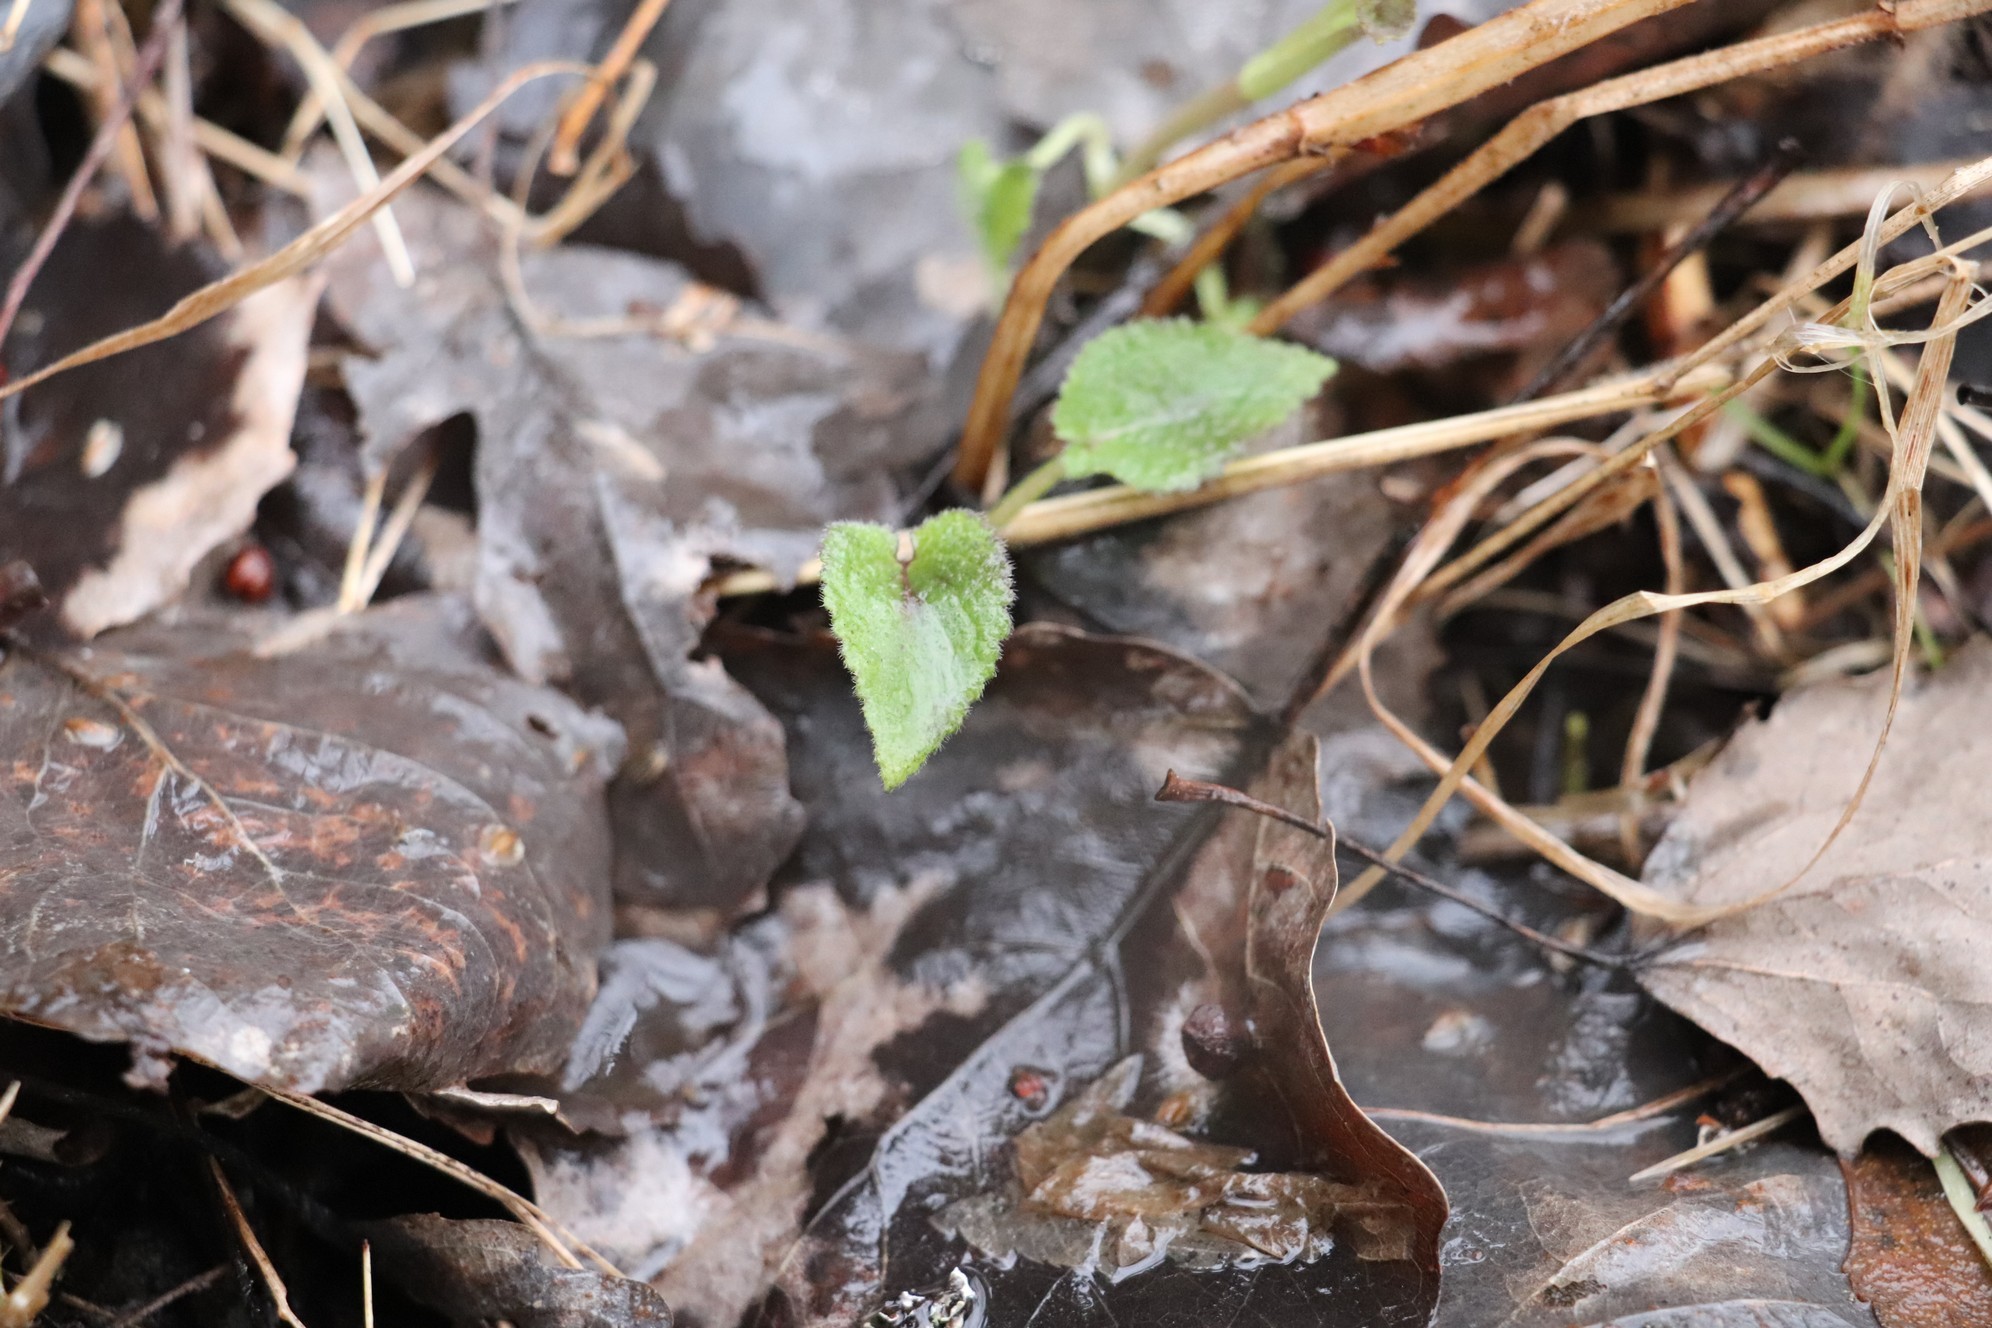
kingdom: Plantae
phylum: Tracheophyta
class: Magnoliopsida
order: Lamiales
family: Lamiaceae
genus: Lamium
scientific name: Lamium album
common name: White dead-nettle
